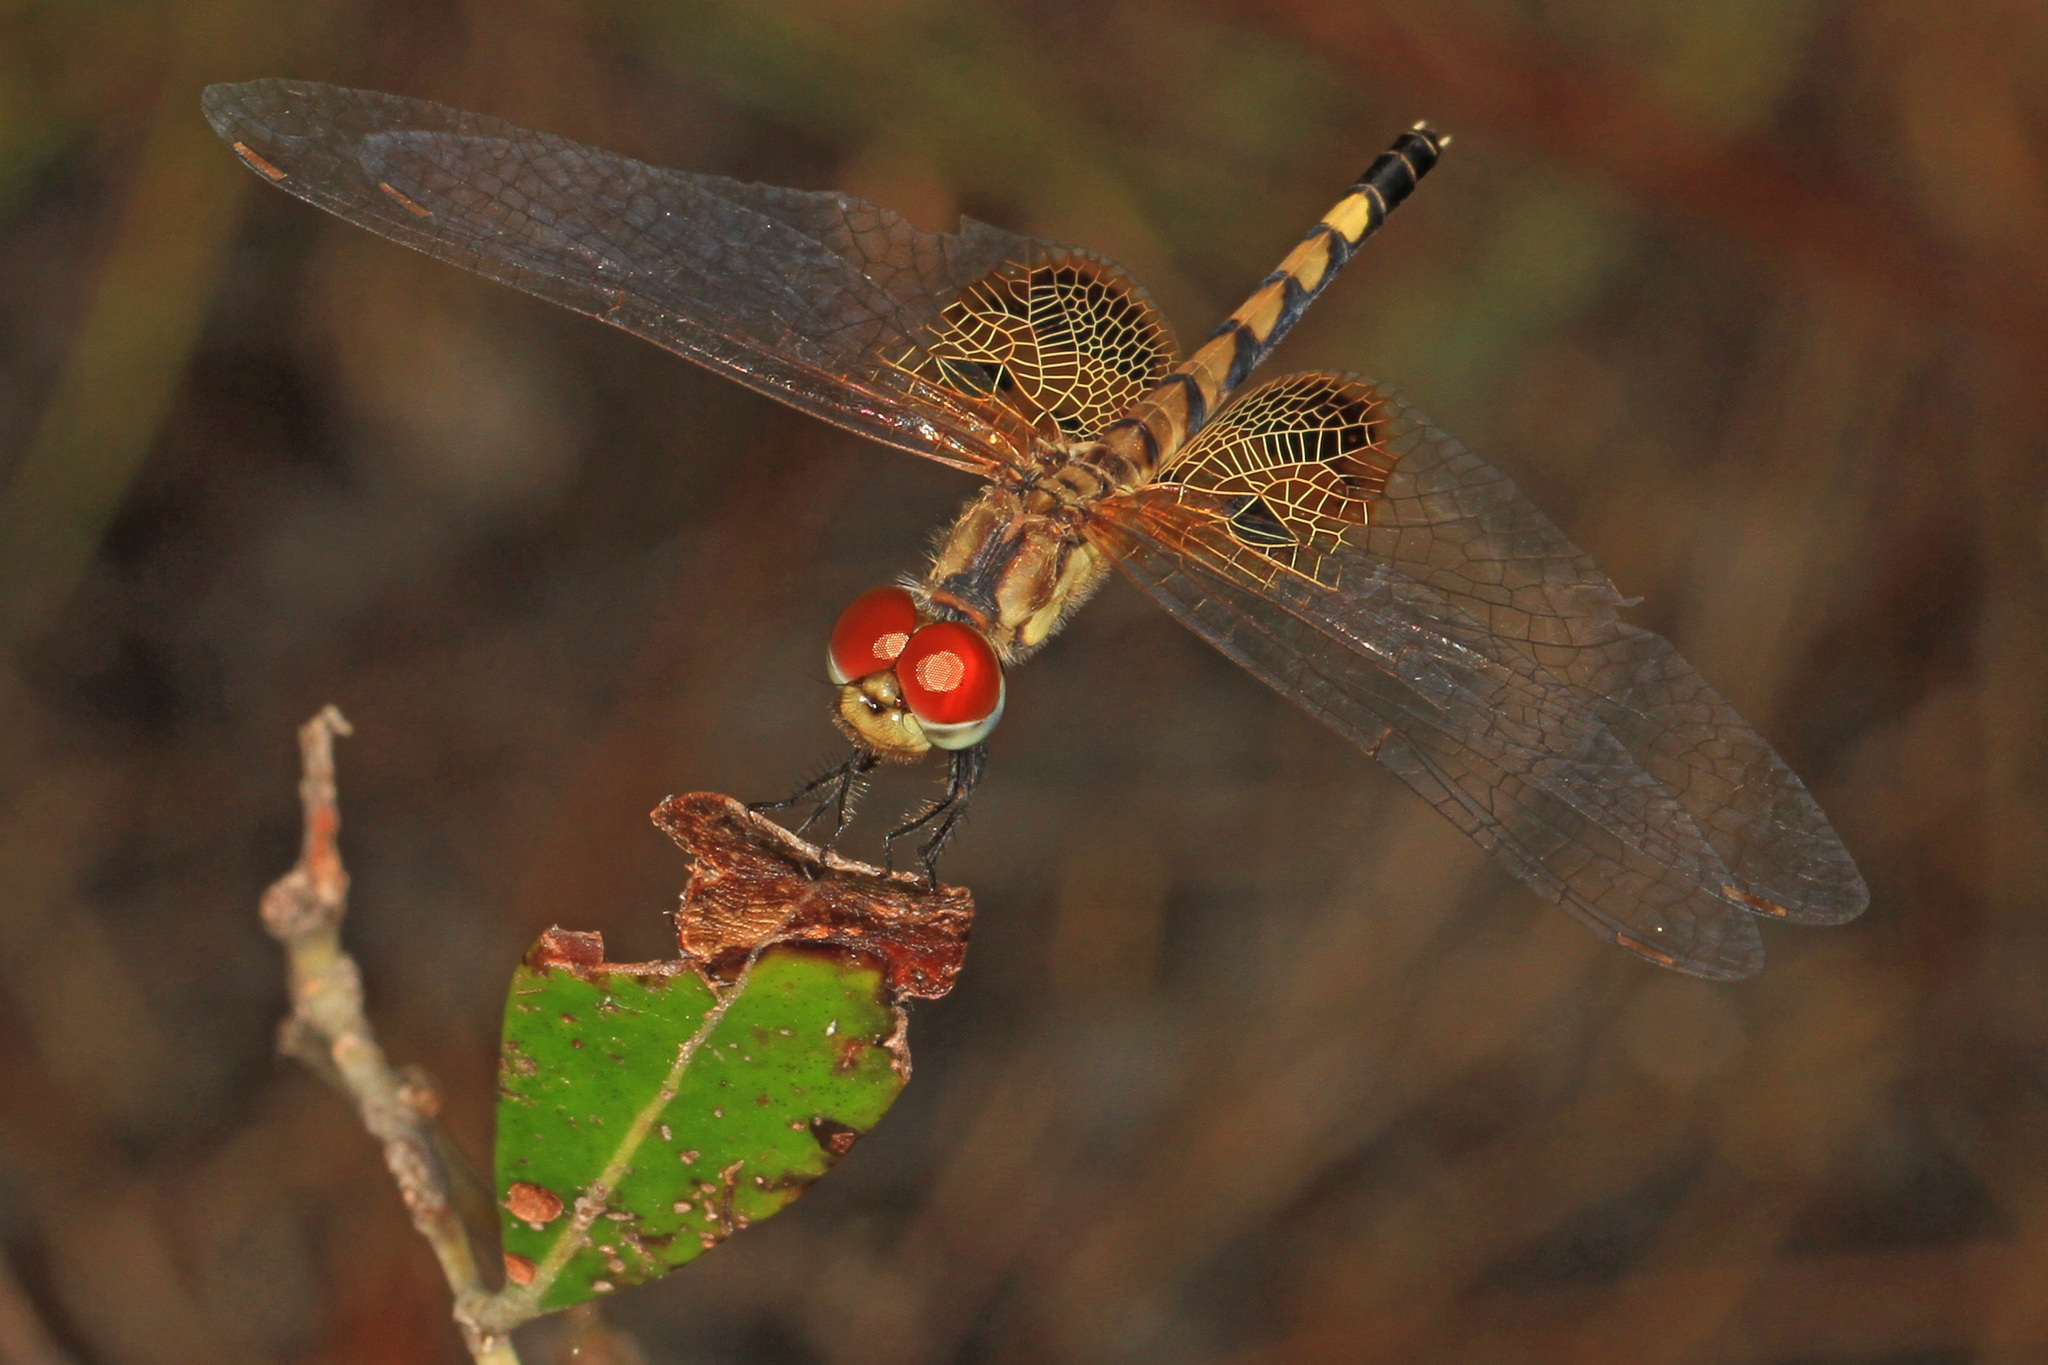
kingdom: Animalia
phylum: Arthropoda
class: Insecta
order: Odonata
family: Libellulidae
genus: Celithemis
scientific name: Celithemis amanda
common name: Amanda's pennant
